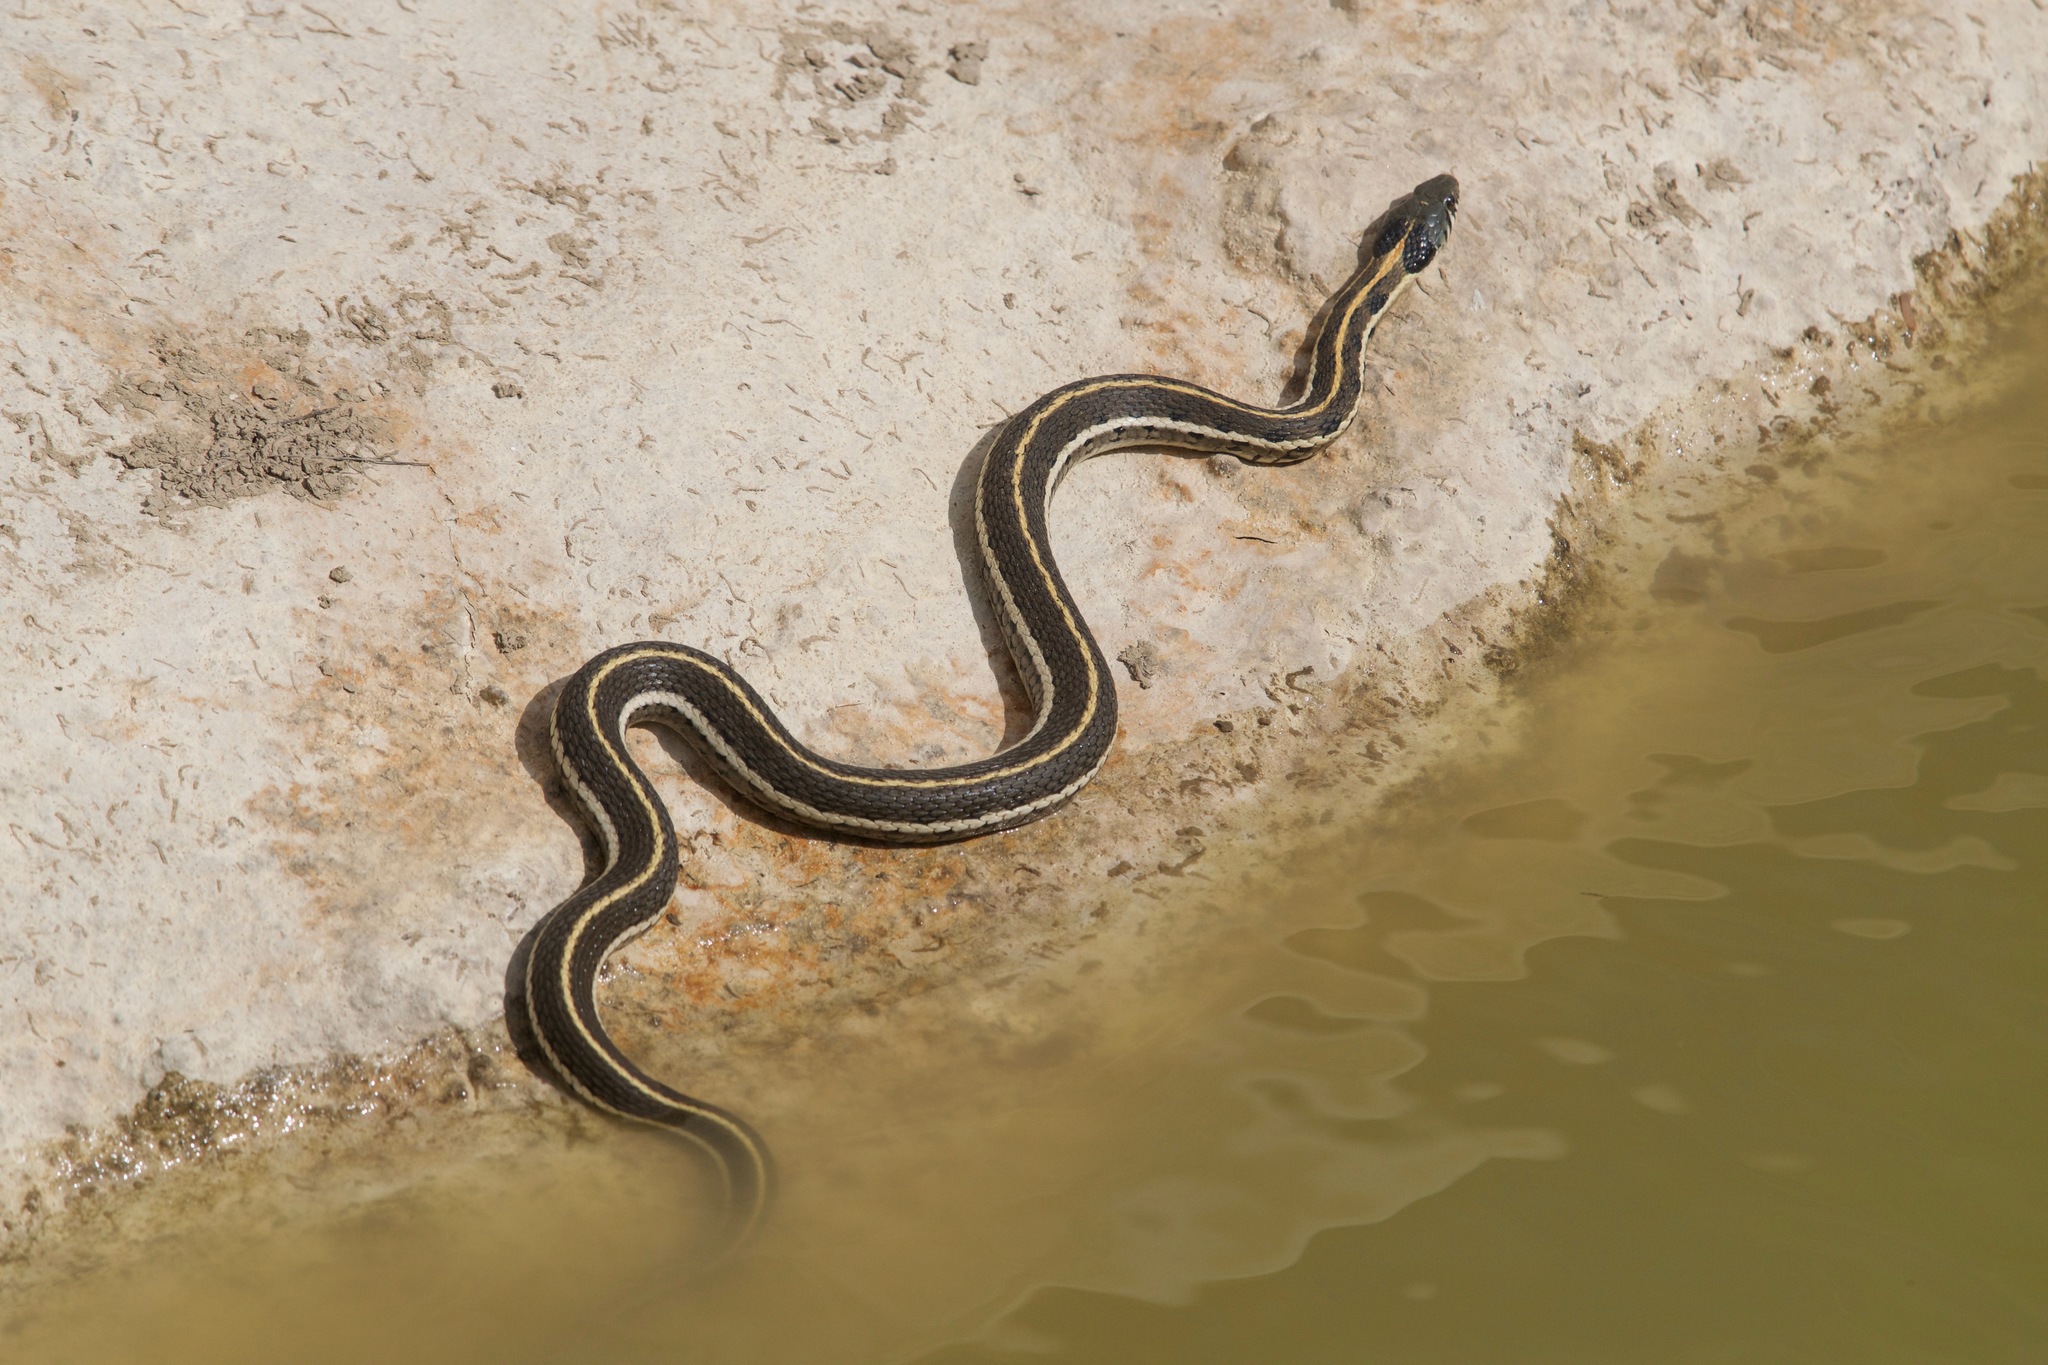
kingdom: Animalia
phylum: Chordata
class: Squamata
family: Colubridae
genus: Thamnophis
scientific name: Thamnophis cyrtopsis
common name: Black-necked gartersnake
